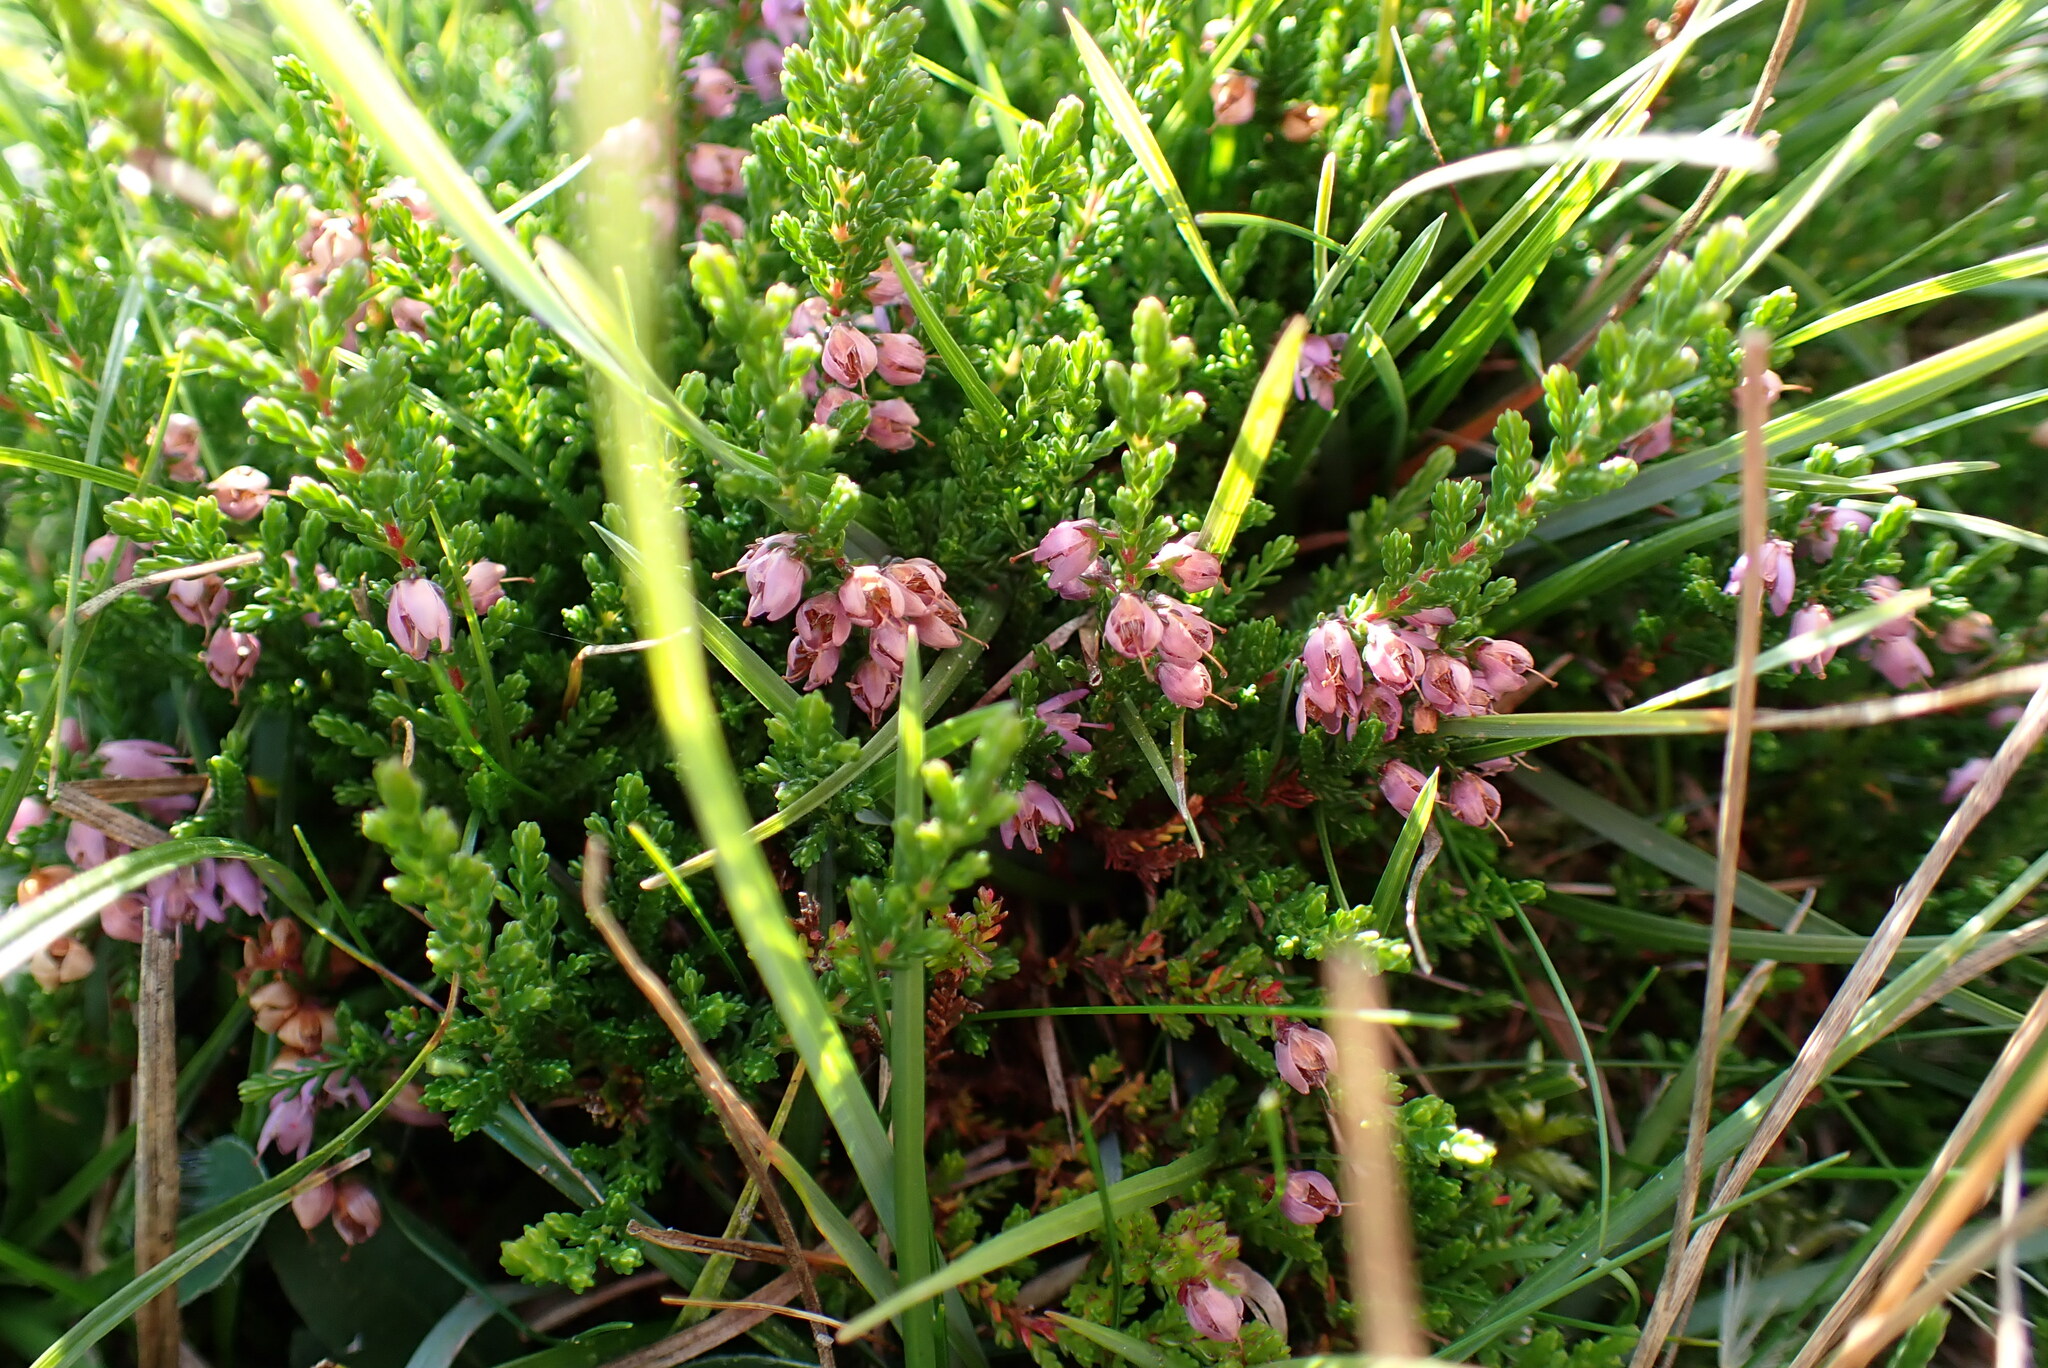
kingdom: Plantae
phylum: Tracheophyta
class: Magnoliopsida
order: Ericales
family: Ericaceae
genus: Calluna
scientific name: Calluna vulgaris
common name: Heather
